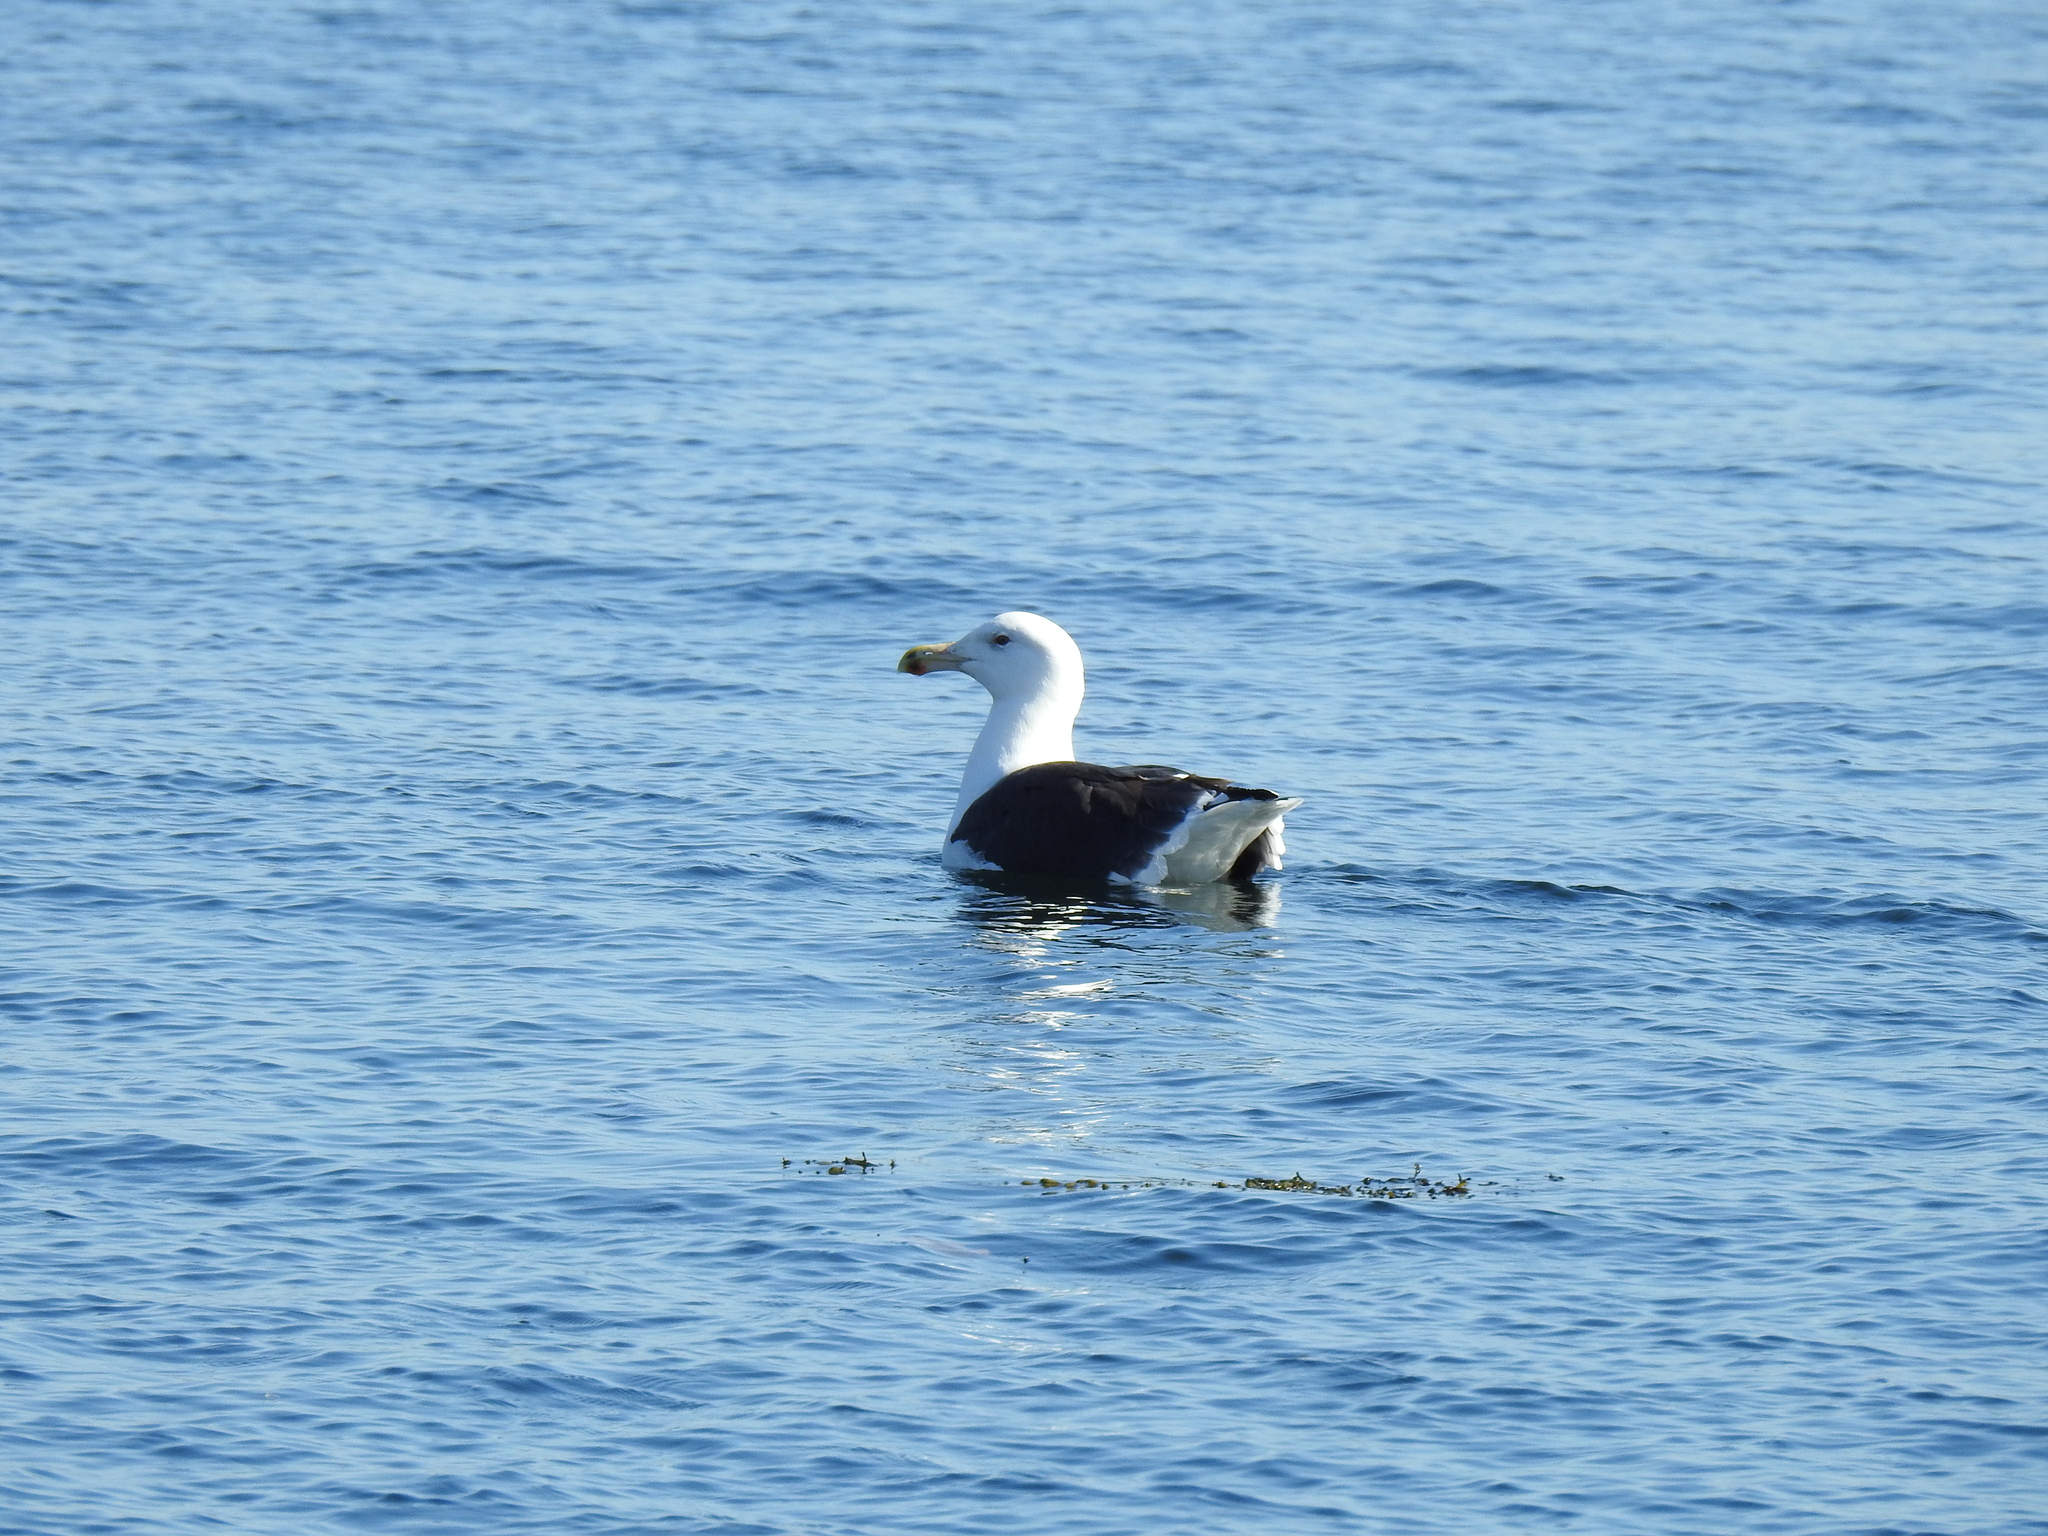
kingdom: Animalia
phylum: Chordata
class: Aves
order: Charadriiformes
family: Laridae
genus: Larus
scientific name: Larus marinus
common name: Great black-backed gull
